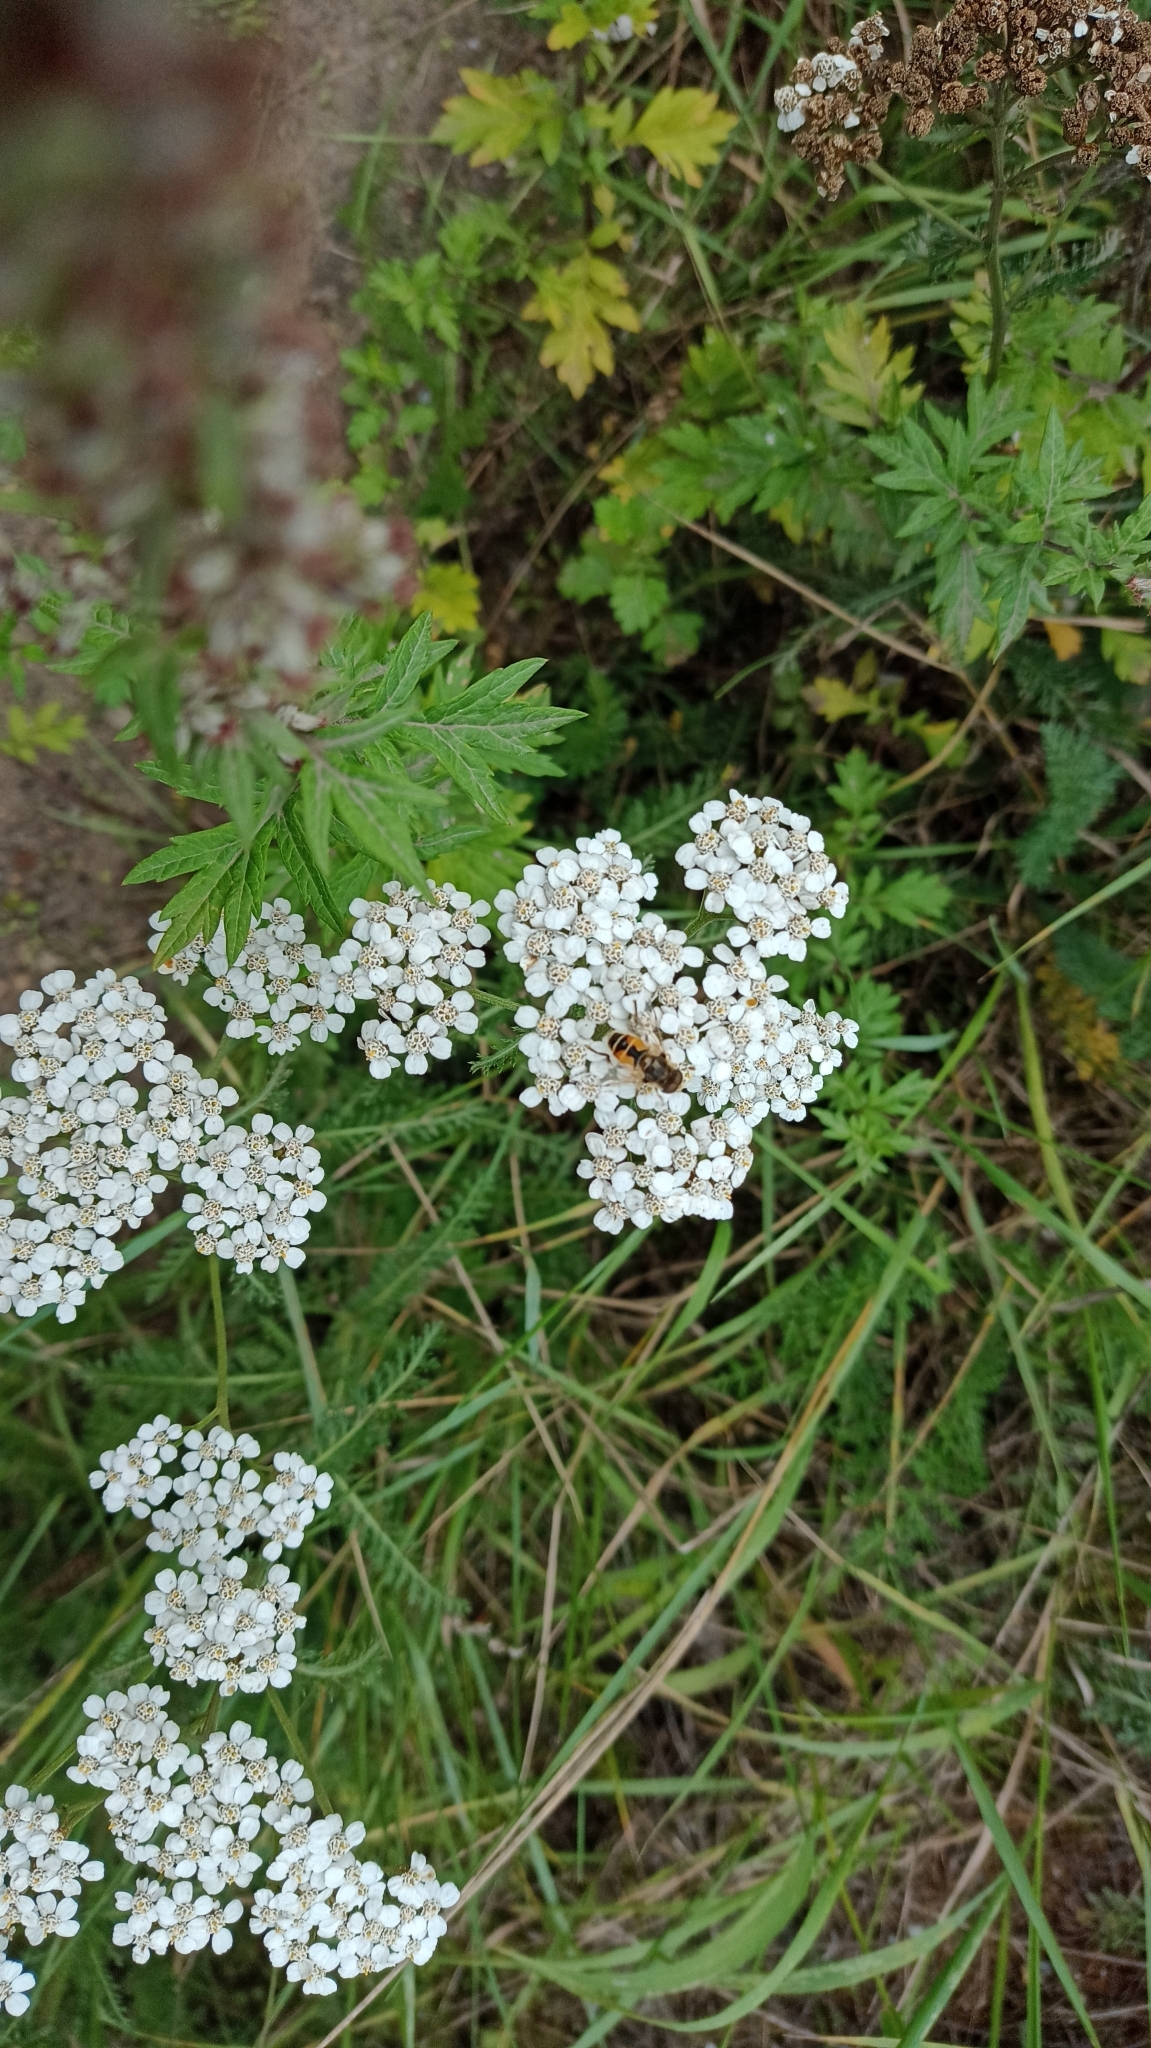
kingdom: Animalia
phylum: Arthropoda
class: Insecta
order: Diptera
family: Syrphidae
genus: Eristalis
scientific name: Eristalis arbustorum
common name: Hover fly
